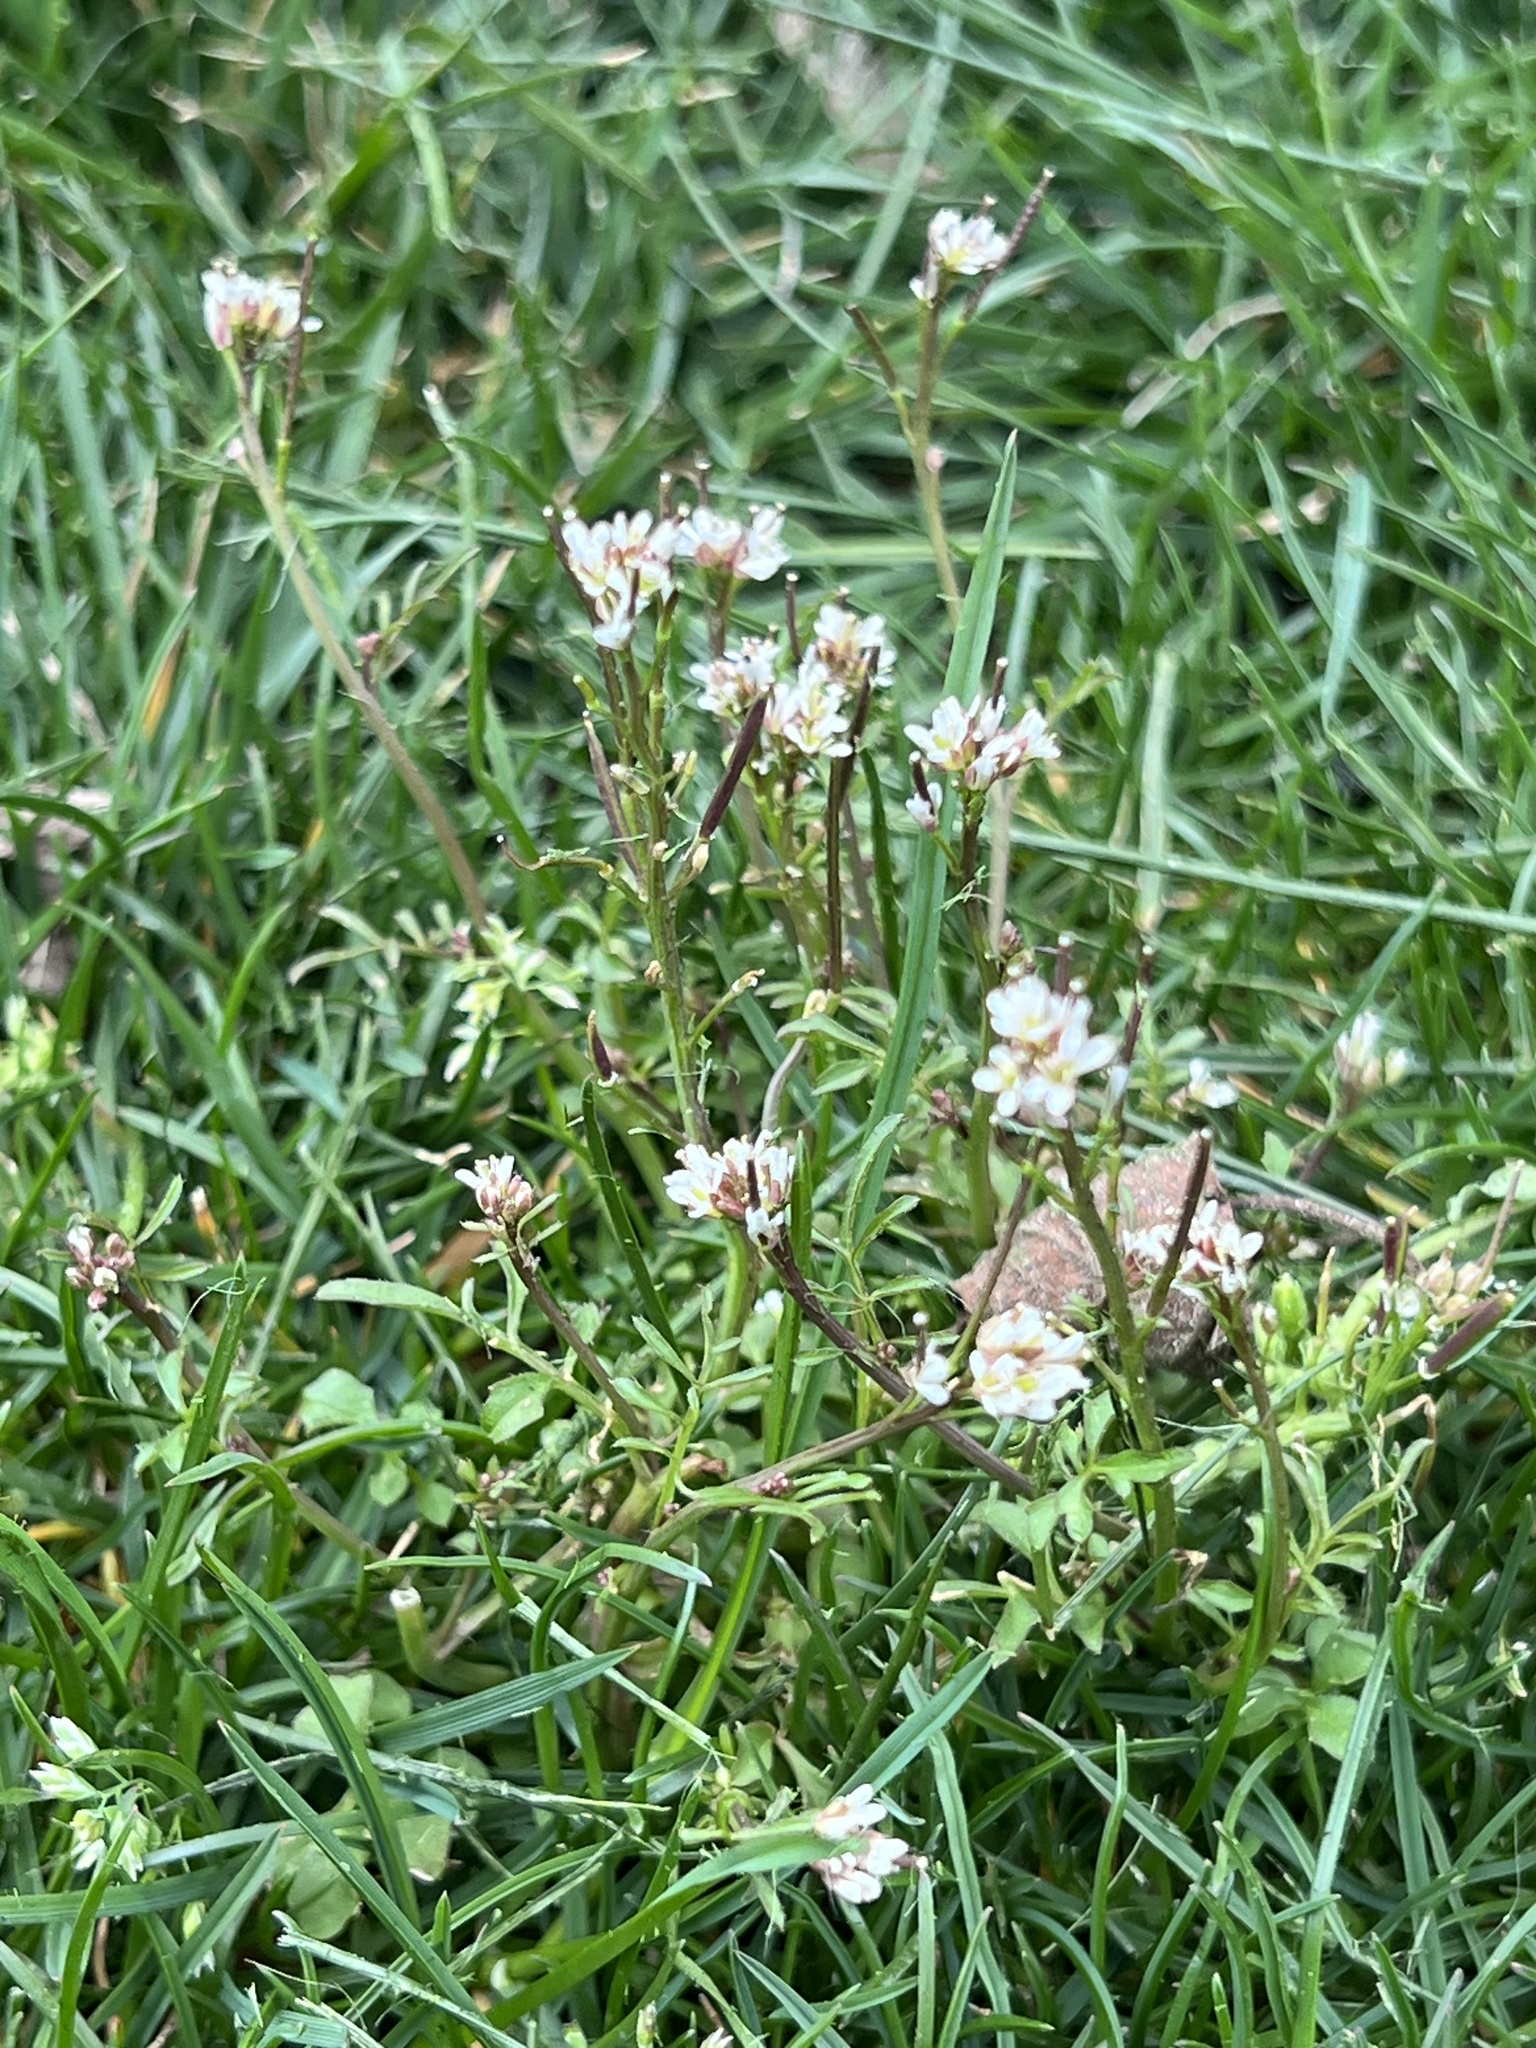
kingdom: Plantae
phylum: Tracheophyta
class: Magnoliopsida
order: Brassicales
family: Brassicaceae
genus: Cardamine
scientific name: Cardamine hirsuta
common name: Hairy bittercress
